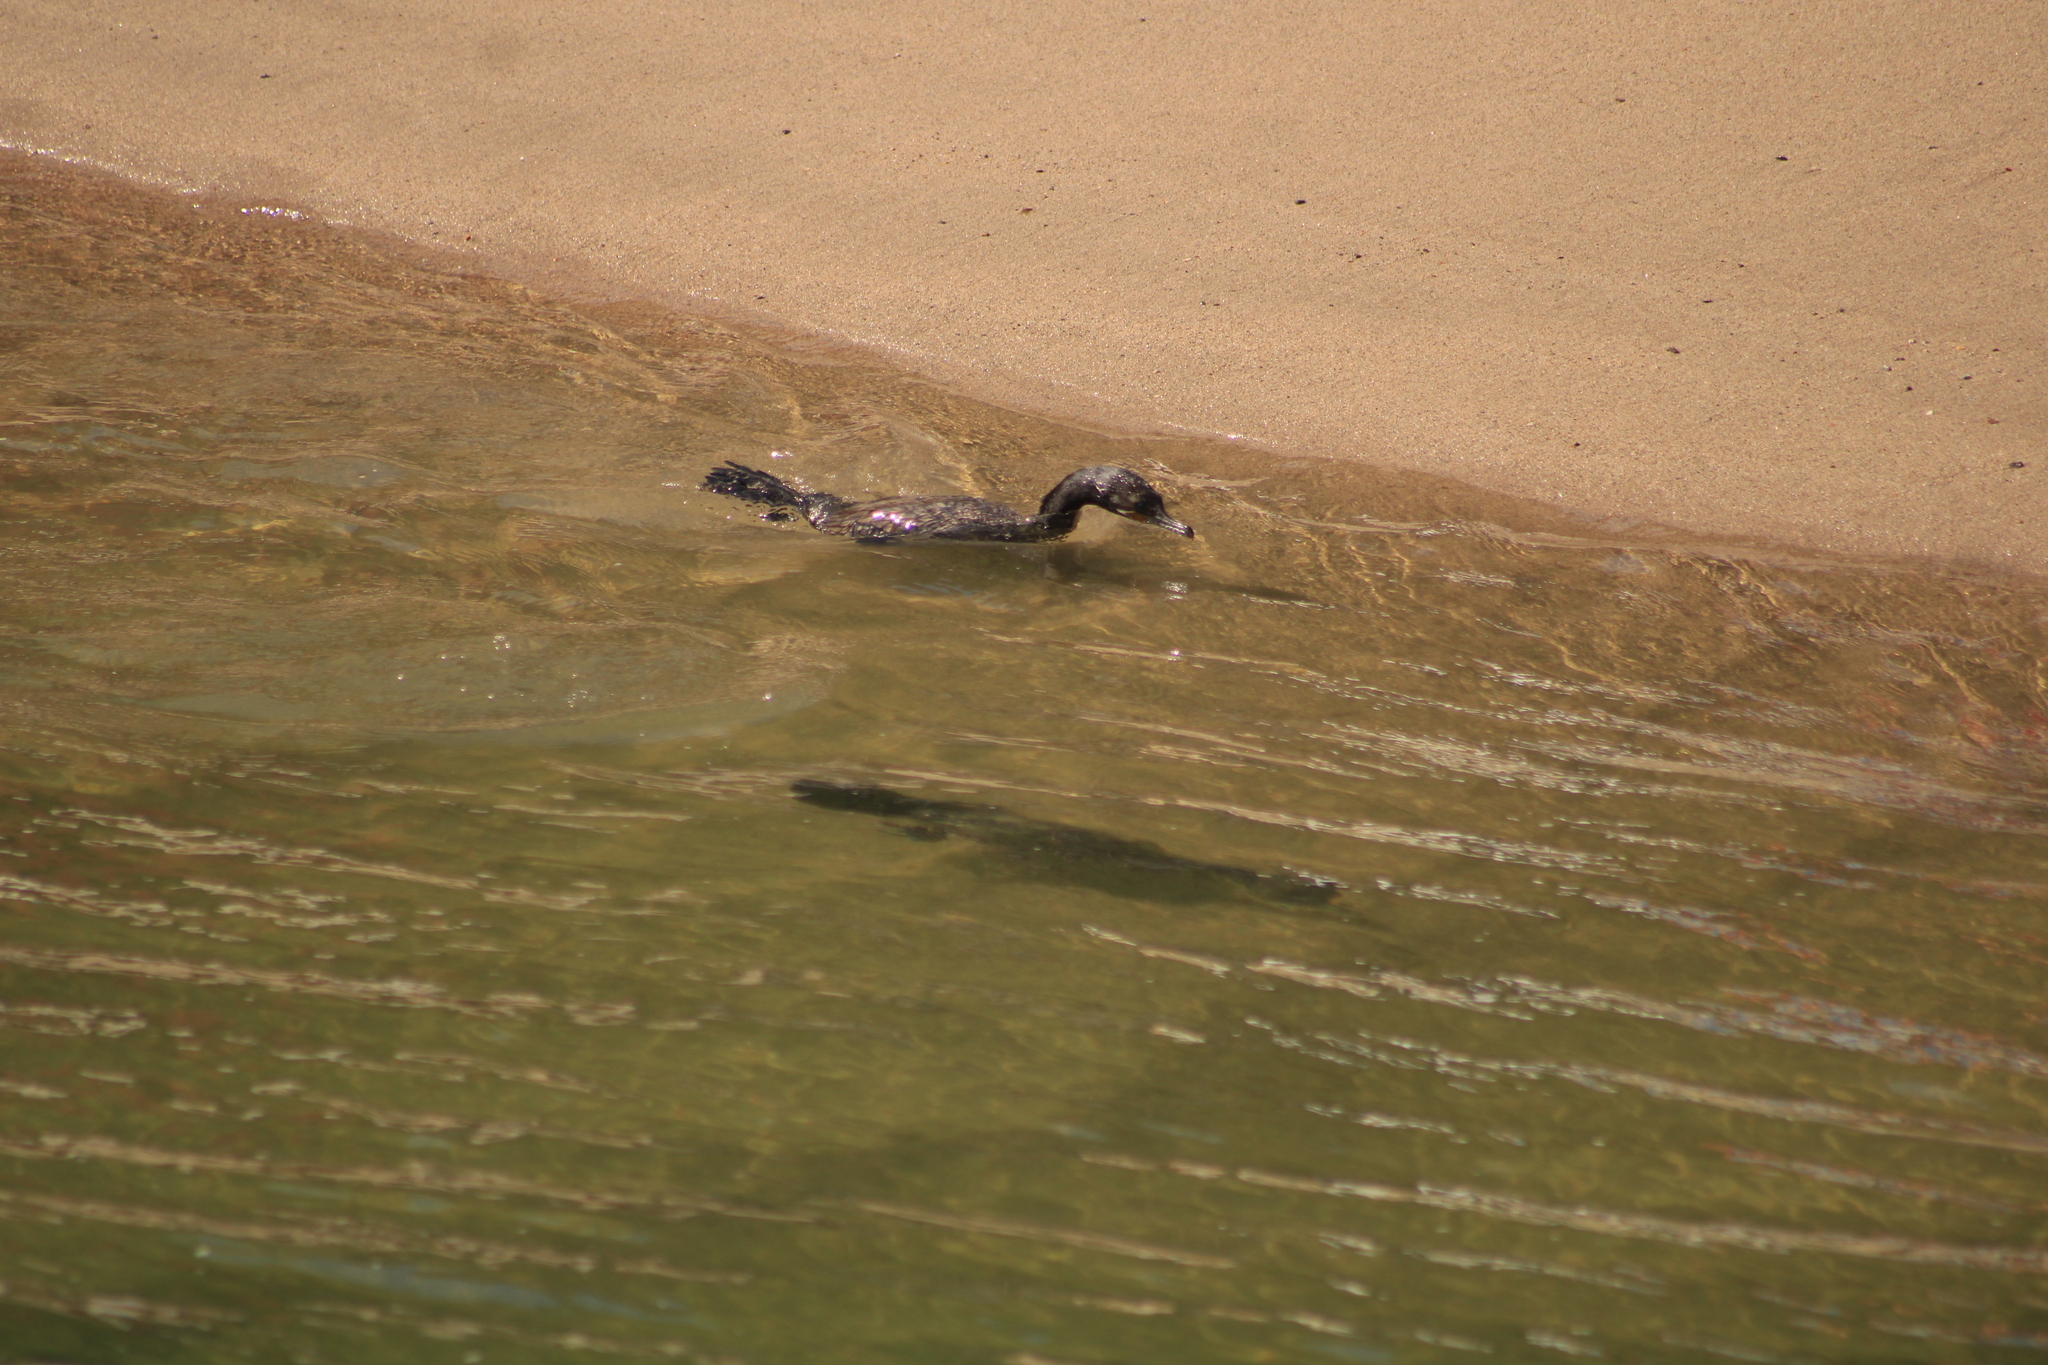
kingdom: Animalia
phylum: Chordata
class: Aves
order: Suliformes
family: Phalacrocoracidae
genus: Phalacrocorax
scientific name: Phalacrocorax brasilianus
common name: Neotropic cormorant
